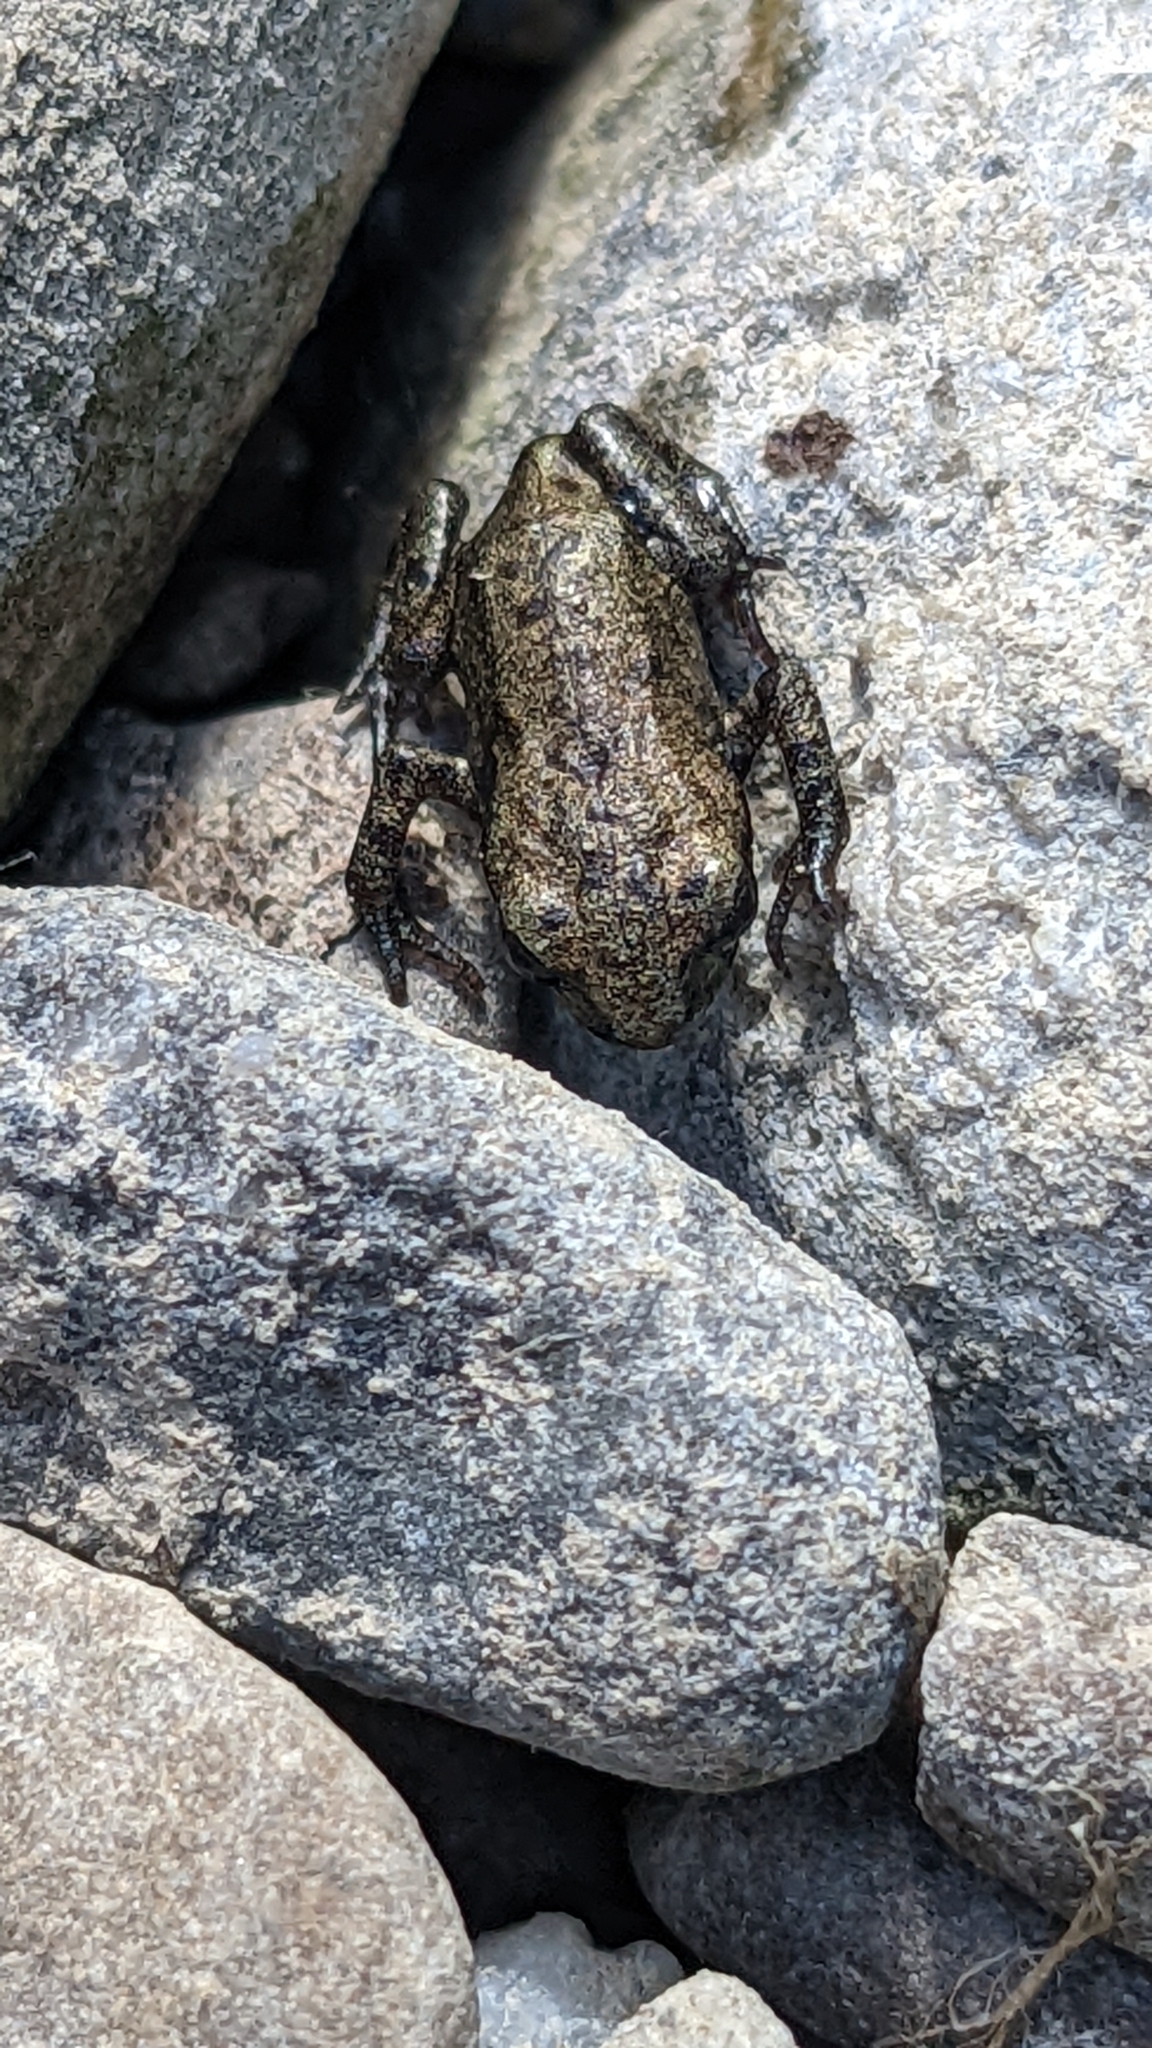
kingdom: Animalia
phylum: Chordata
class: Amphibia
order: Anura
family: Bufonidae
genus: Bufo
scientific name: Bufo bufo
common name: Common toad
